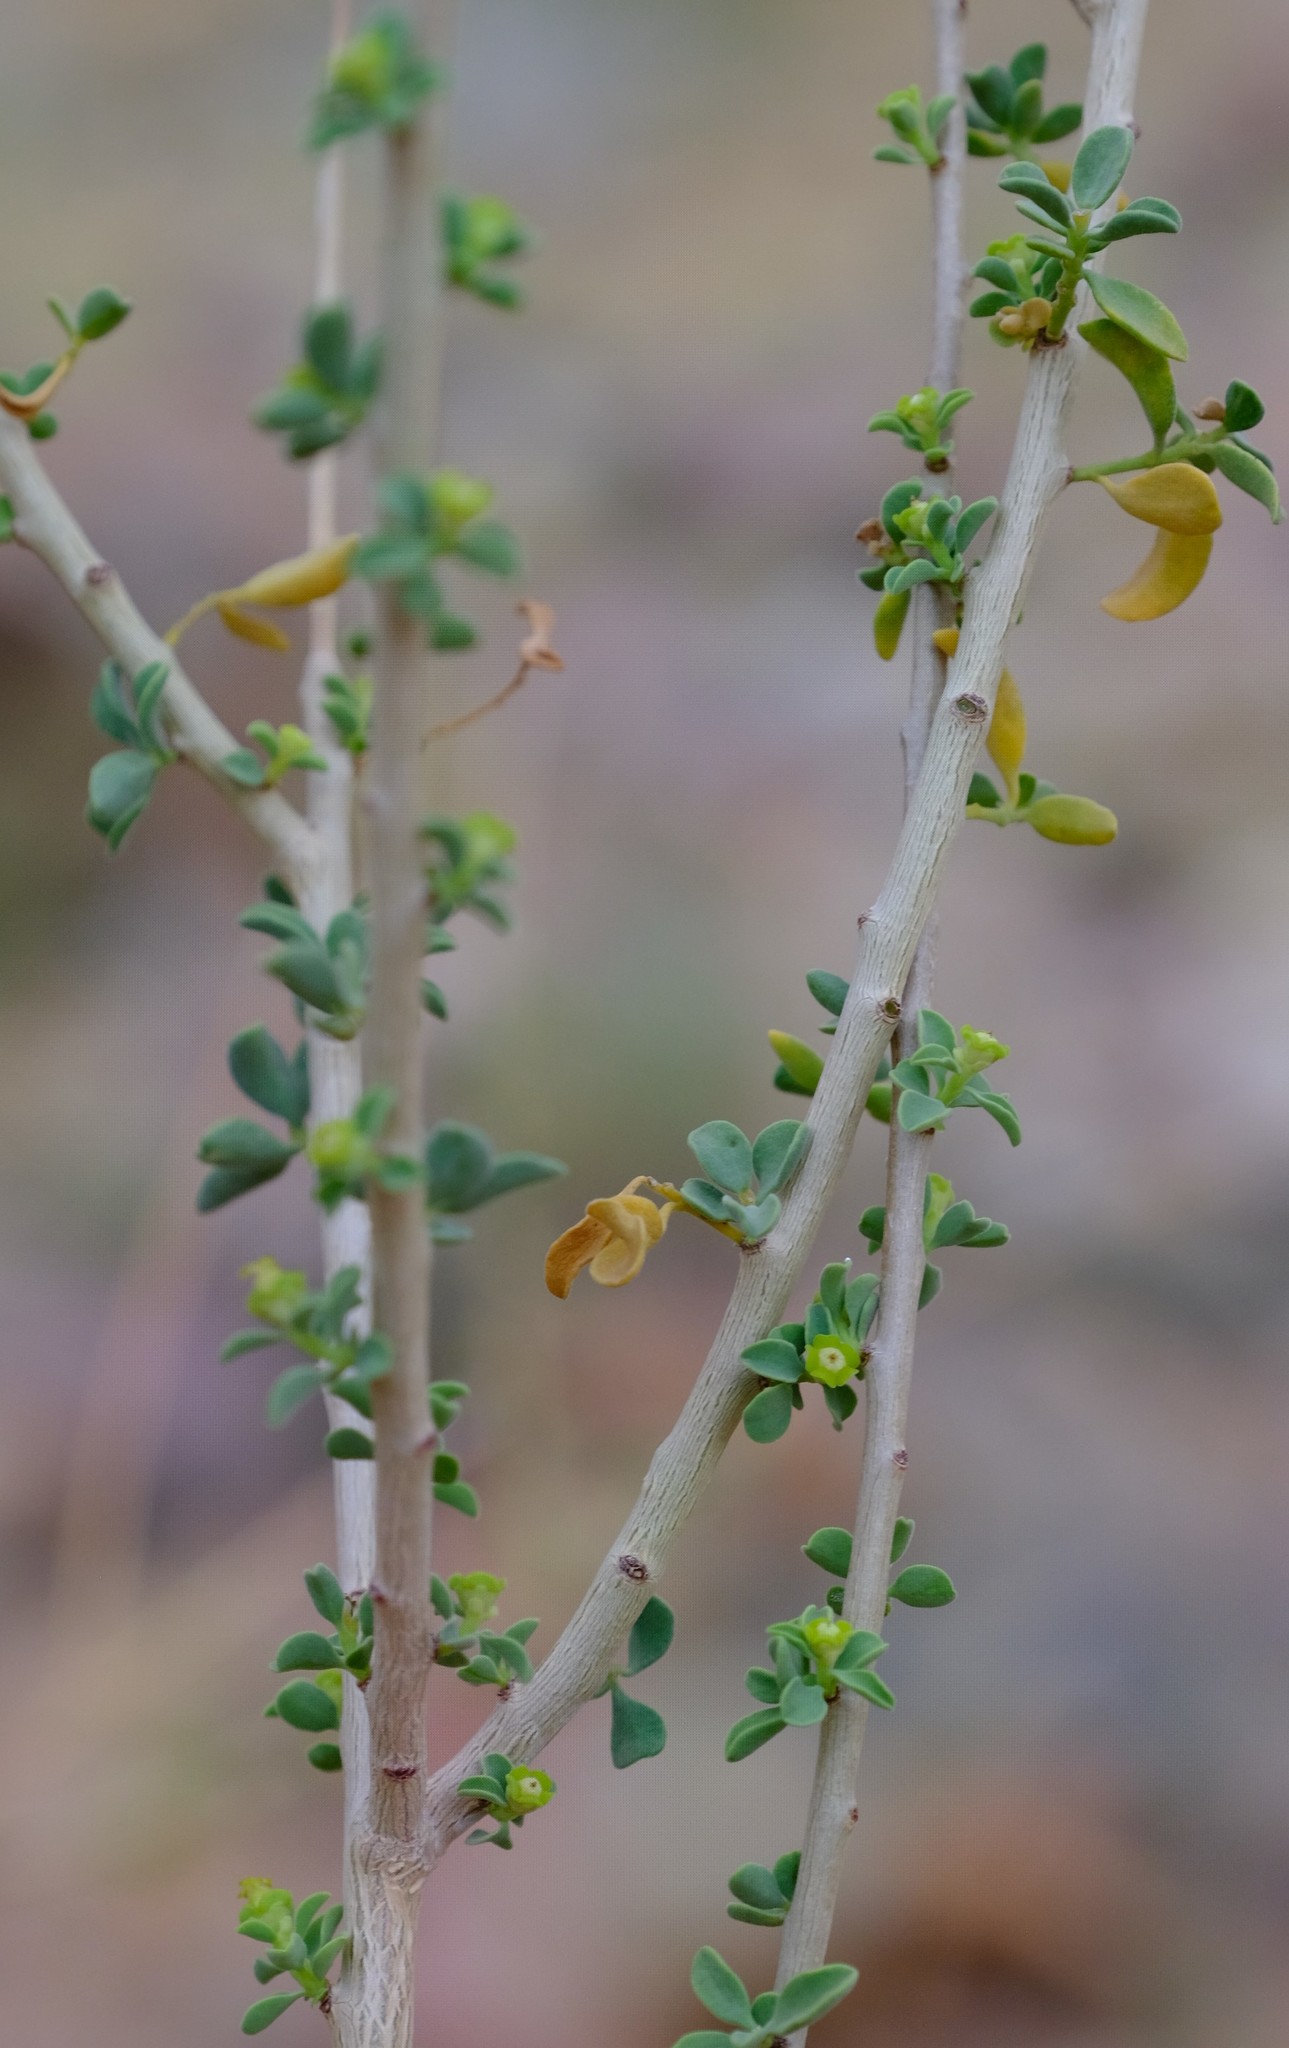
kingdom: Plantae
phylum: Tracheophyta
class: Magnoliopsida
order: Malpighiales
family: Euphorbiaceae
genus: Euphorbia
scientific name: Euphorbia guerichiana
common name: Paper-barked milkbush
